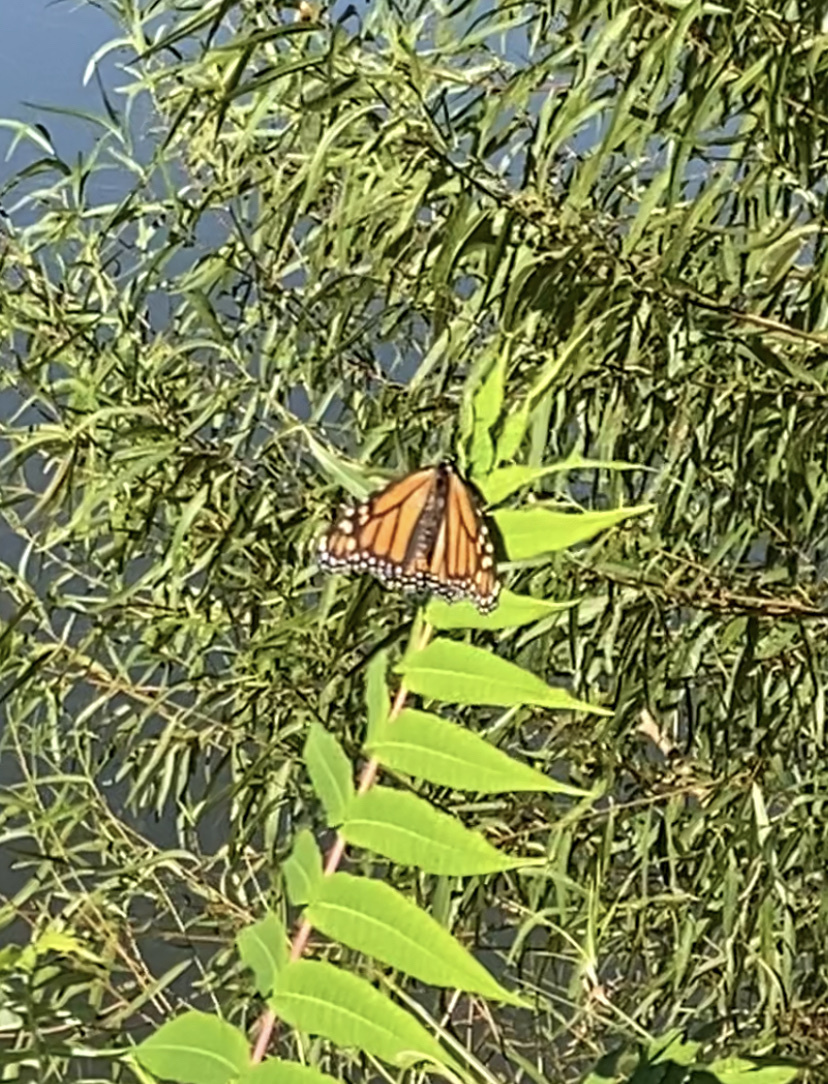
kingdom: Animalia
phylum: Arthropoda
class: Insecta
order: Lepidoptera
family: Nymphalidae
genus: Danaus
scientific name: Danaus plexippus
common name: Monarch
